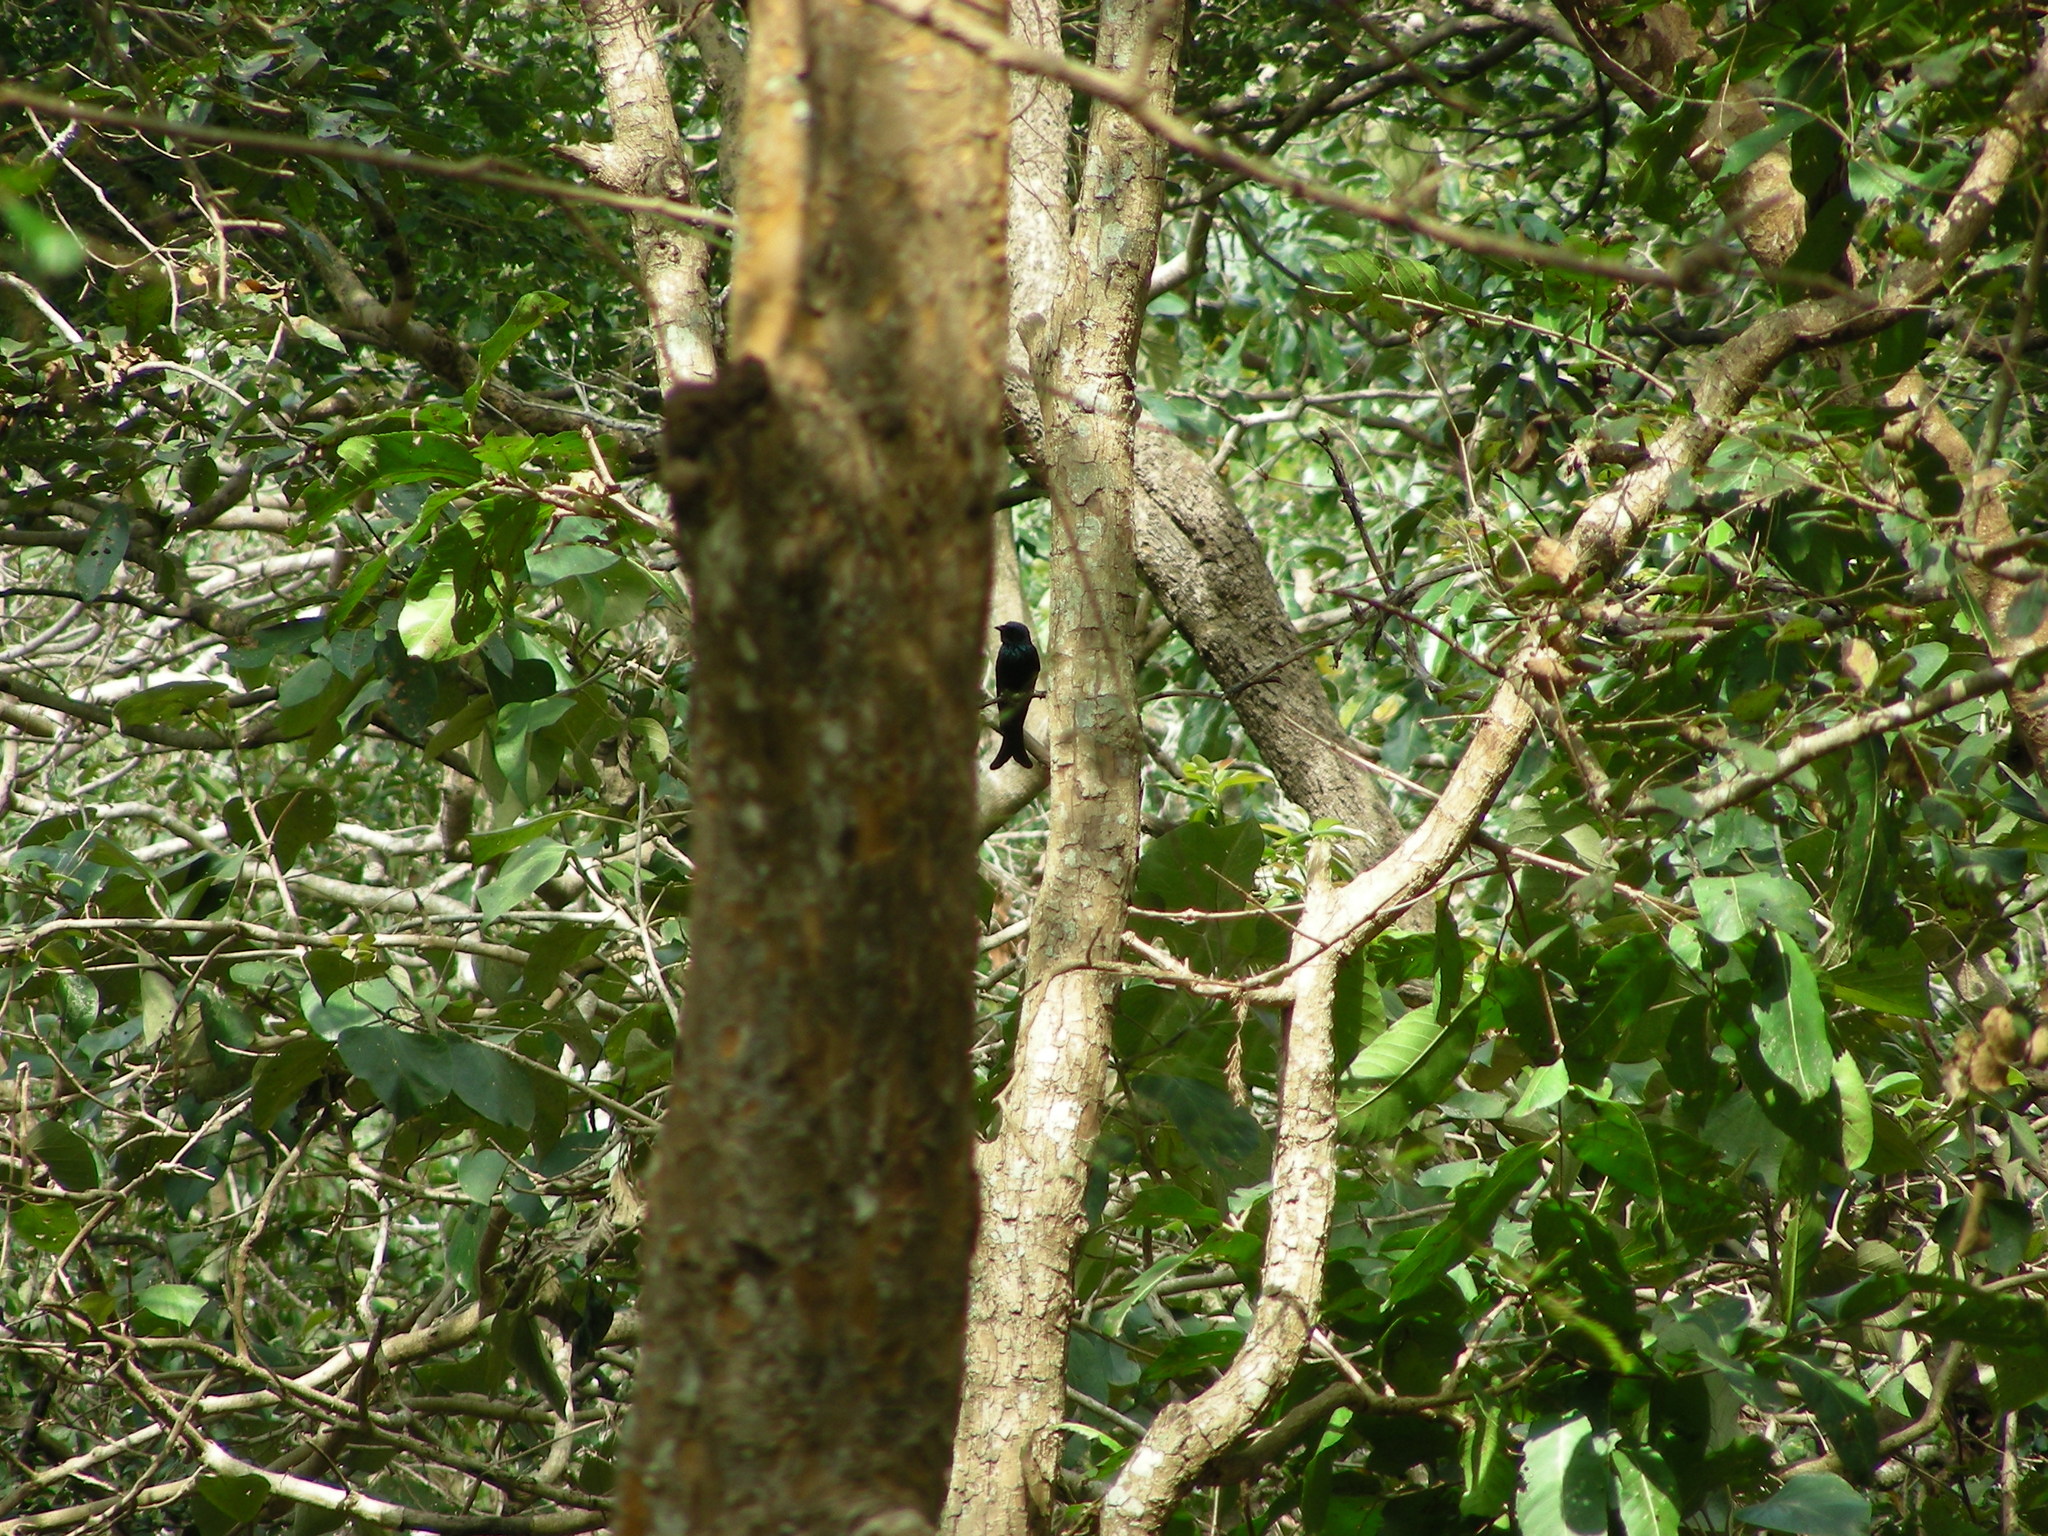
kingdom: Animalia
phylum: Chordata
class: Aves
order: Passeriformes
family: Dicruridae
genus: Dicrurus
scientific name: Dicrurus aeneus
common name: Bronzed drongo
